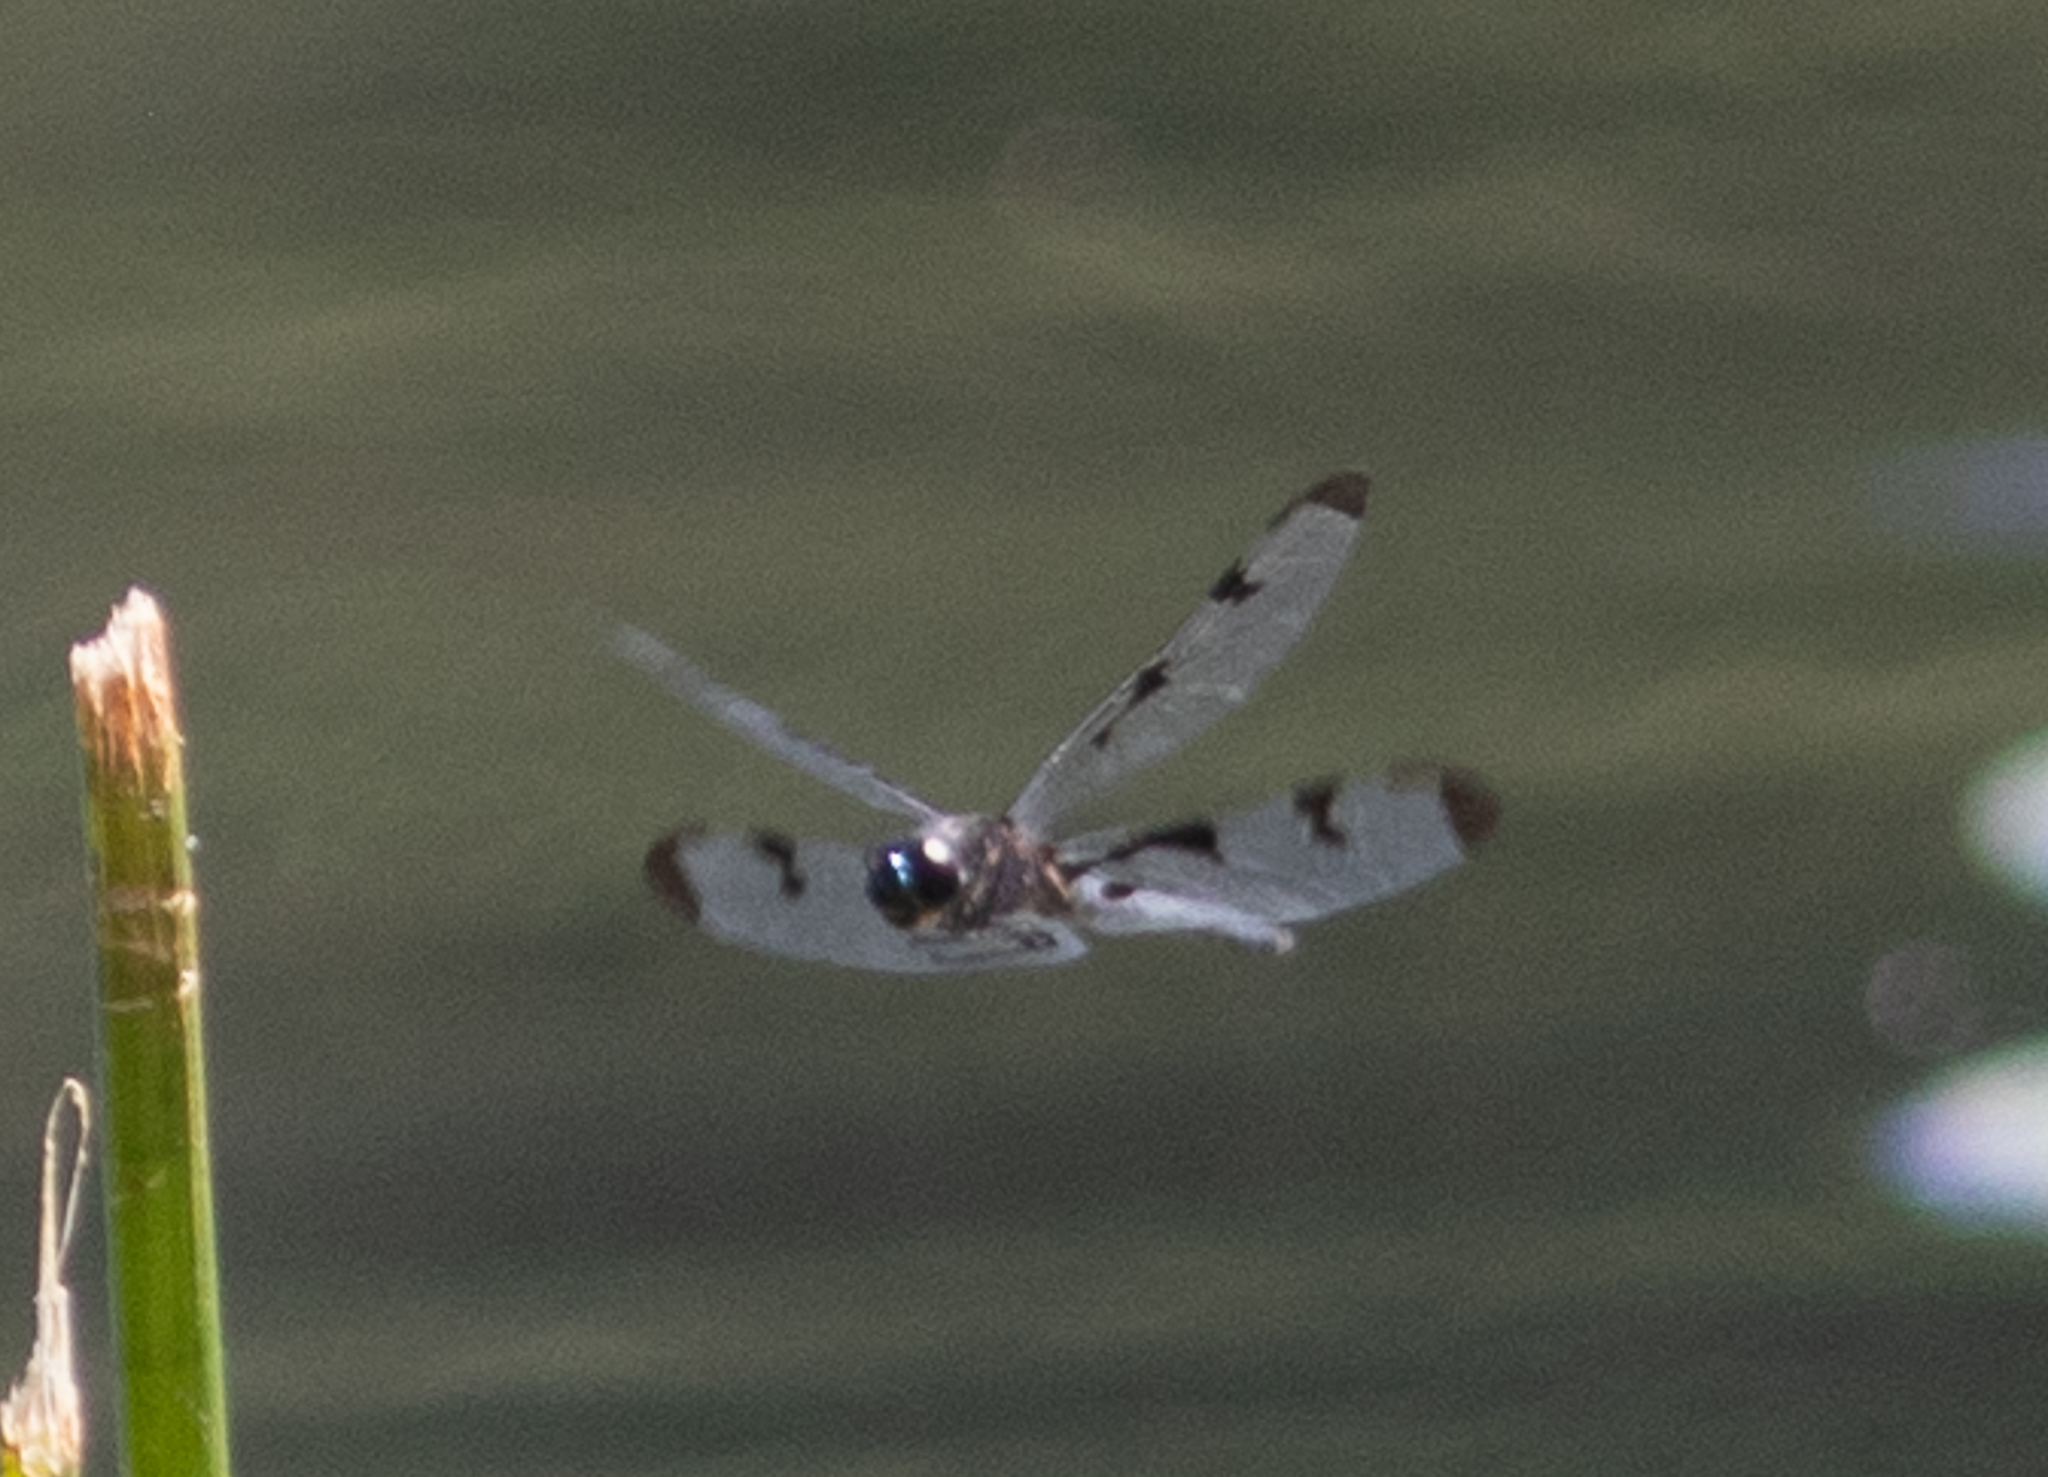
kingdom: Animalia
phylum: Arthropoda
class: Insecta
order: Odonata
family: Libellulidae
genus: Celithemis
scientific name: Celithemis fasciata
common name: Banded pennant
